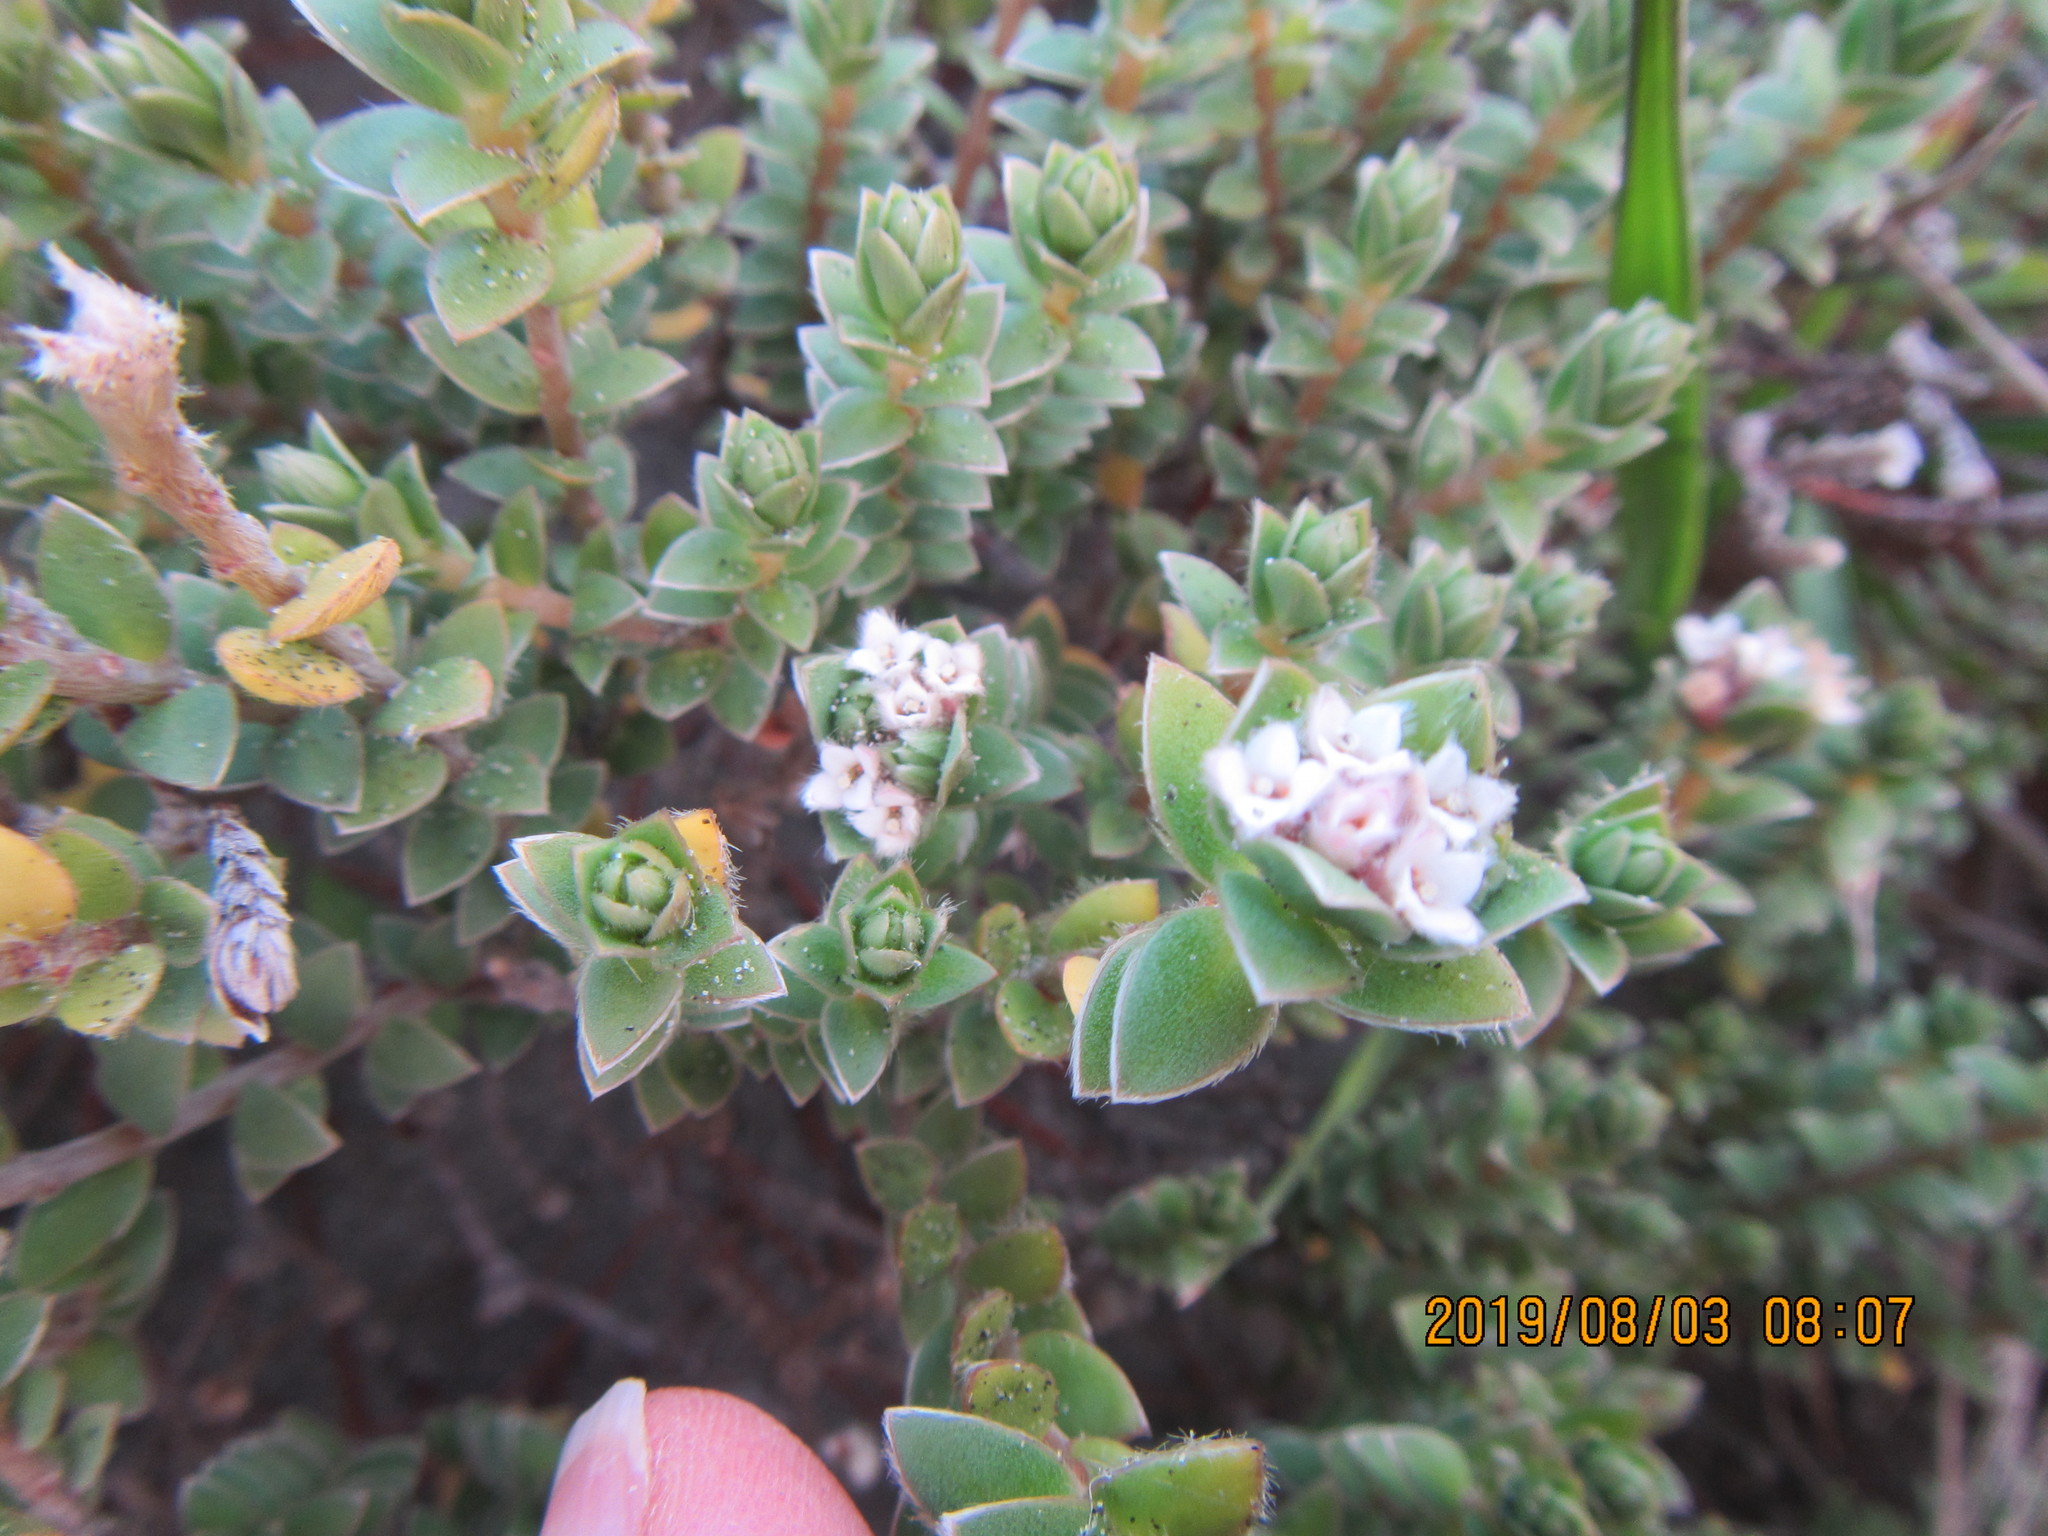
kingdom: Plantae
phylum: Tracheophyta
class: Magnoliopsida
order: Malvales
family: Thymelaeaceae
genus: Pimelea
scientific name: Pimelea villosa
